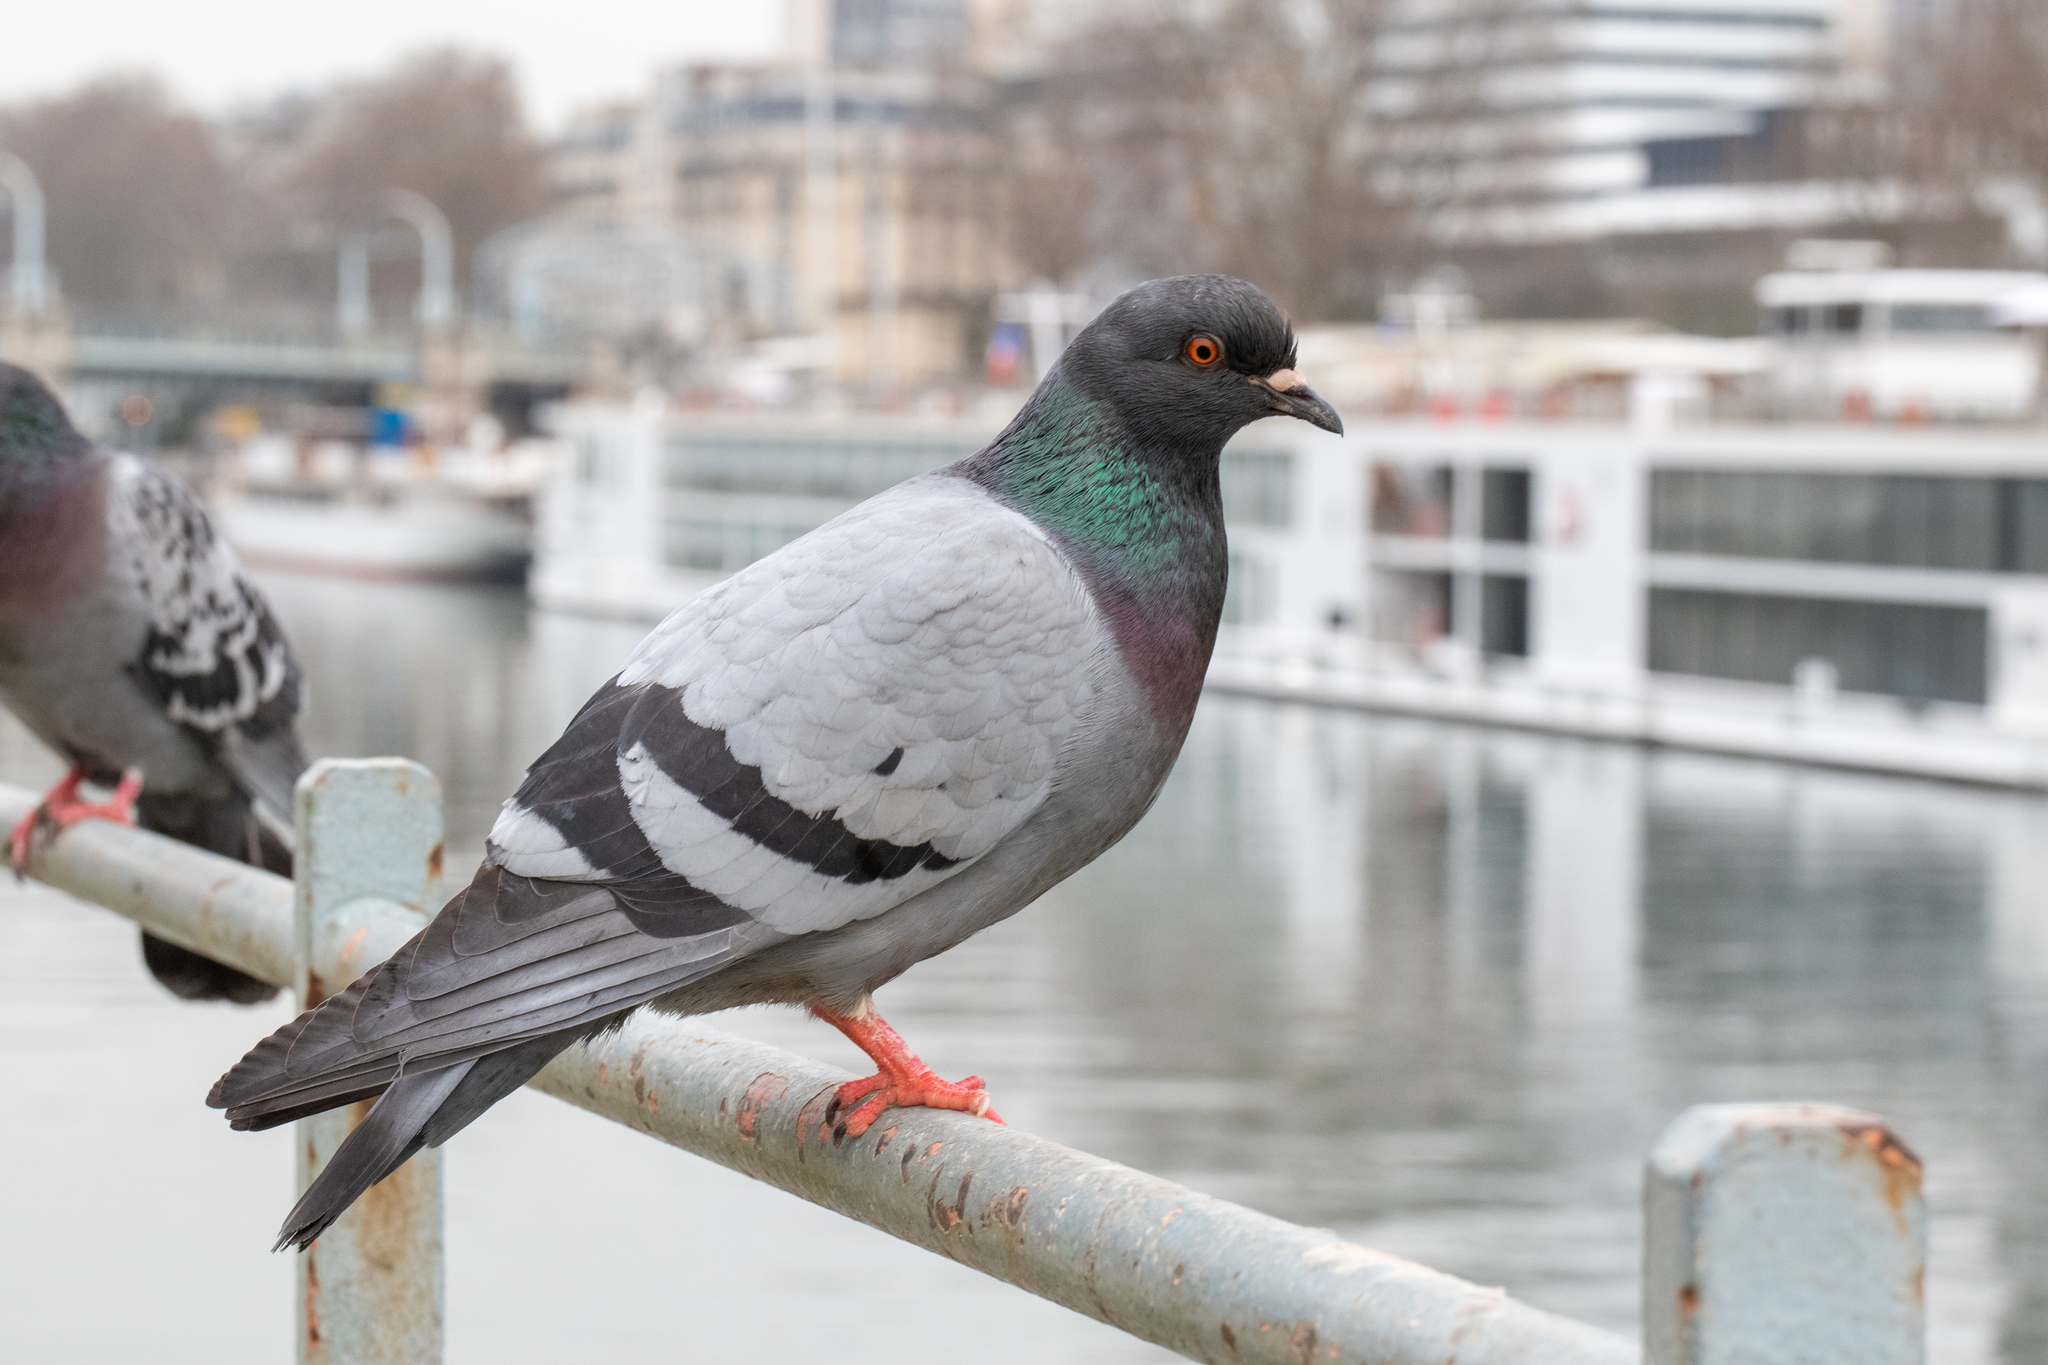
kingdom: Animalia
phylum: Chordata
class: Aves
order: Columbiformes
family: Columbidae
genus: Columba
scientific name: Columba livia
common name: Rock pigeon
